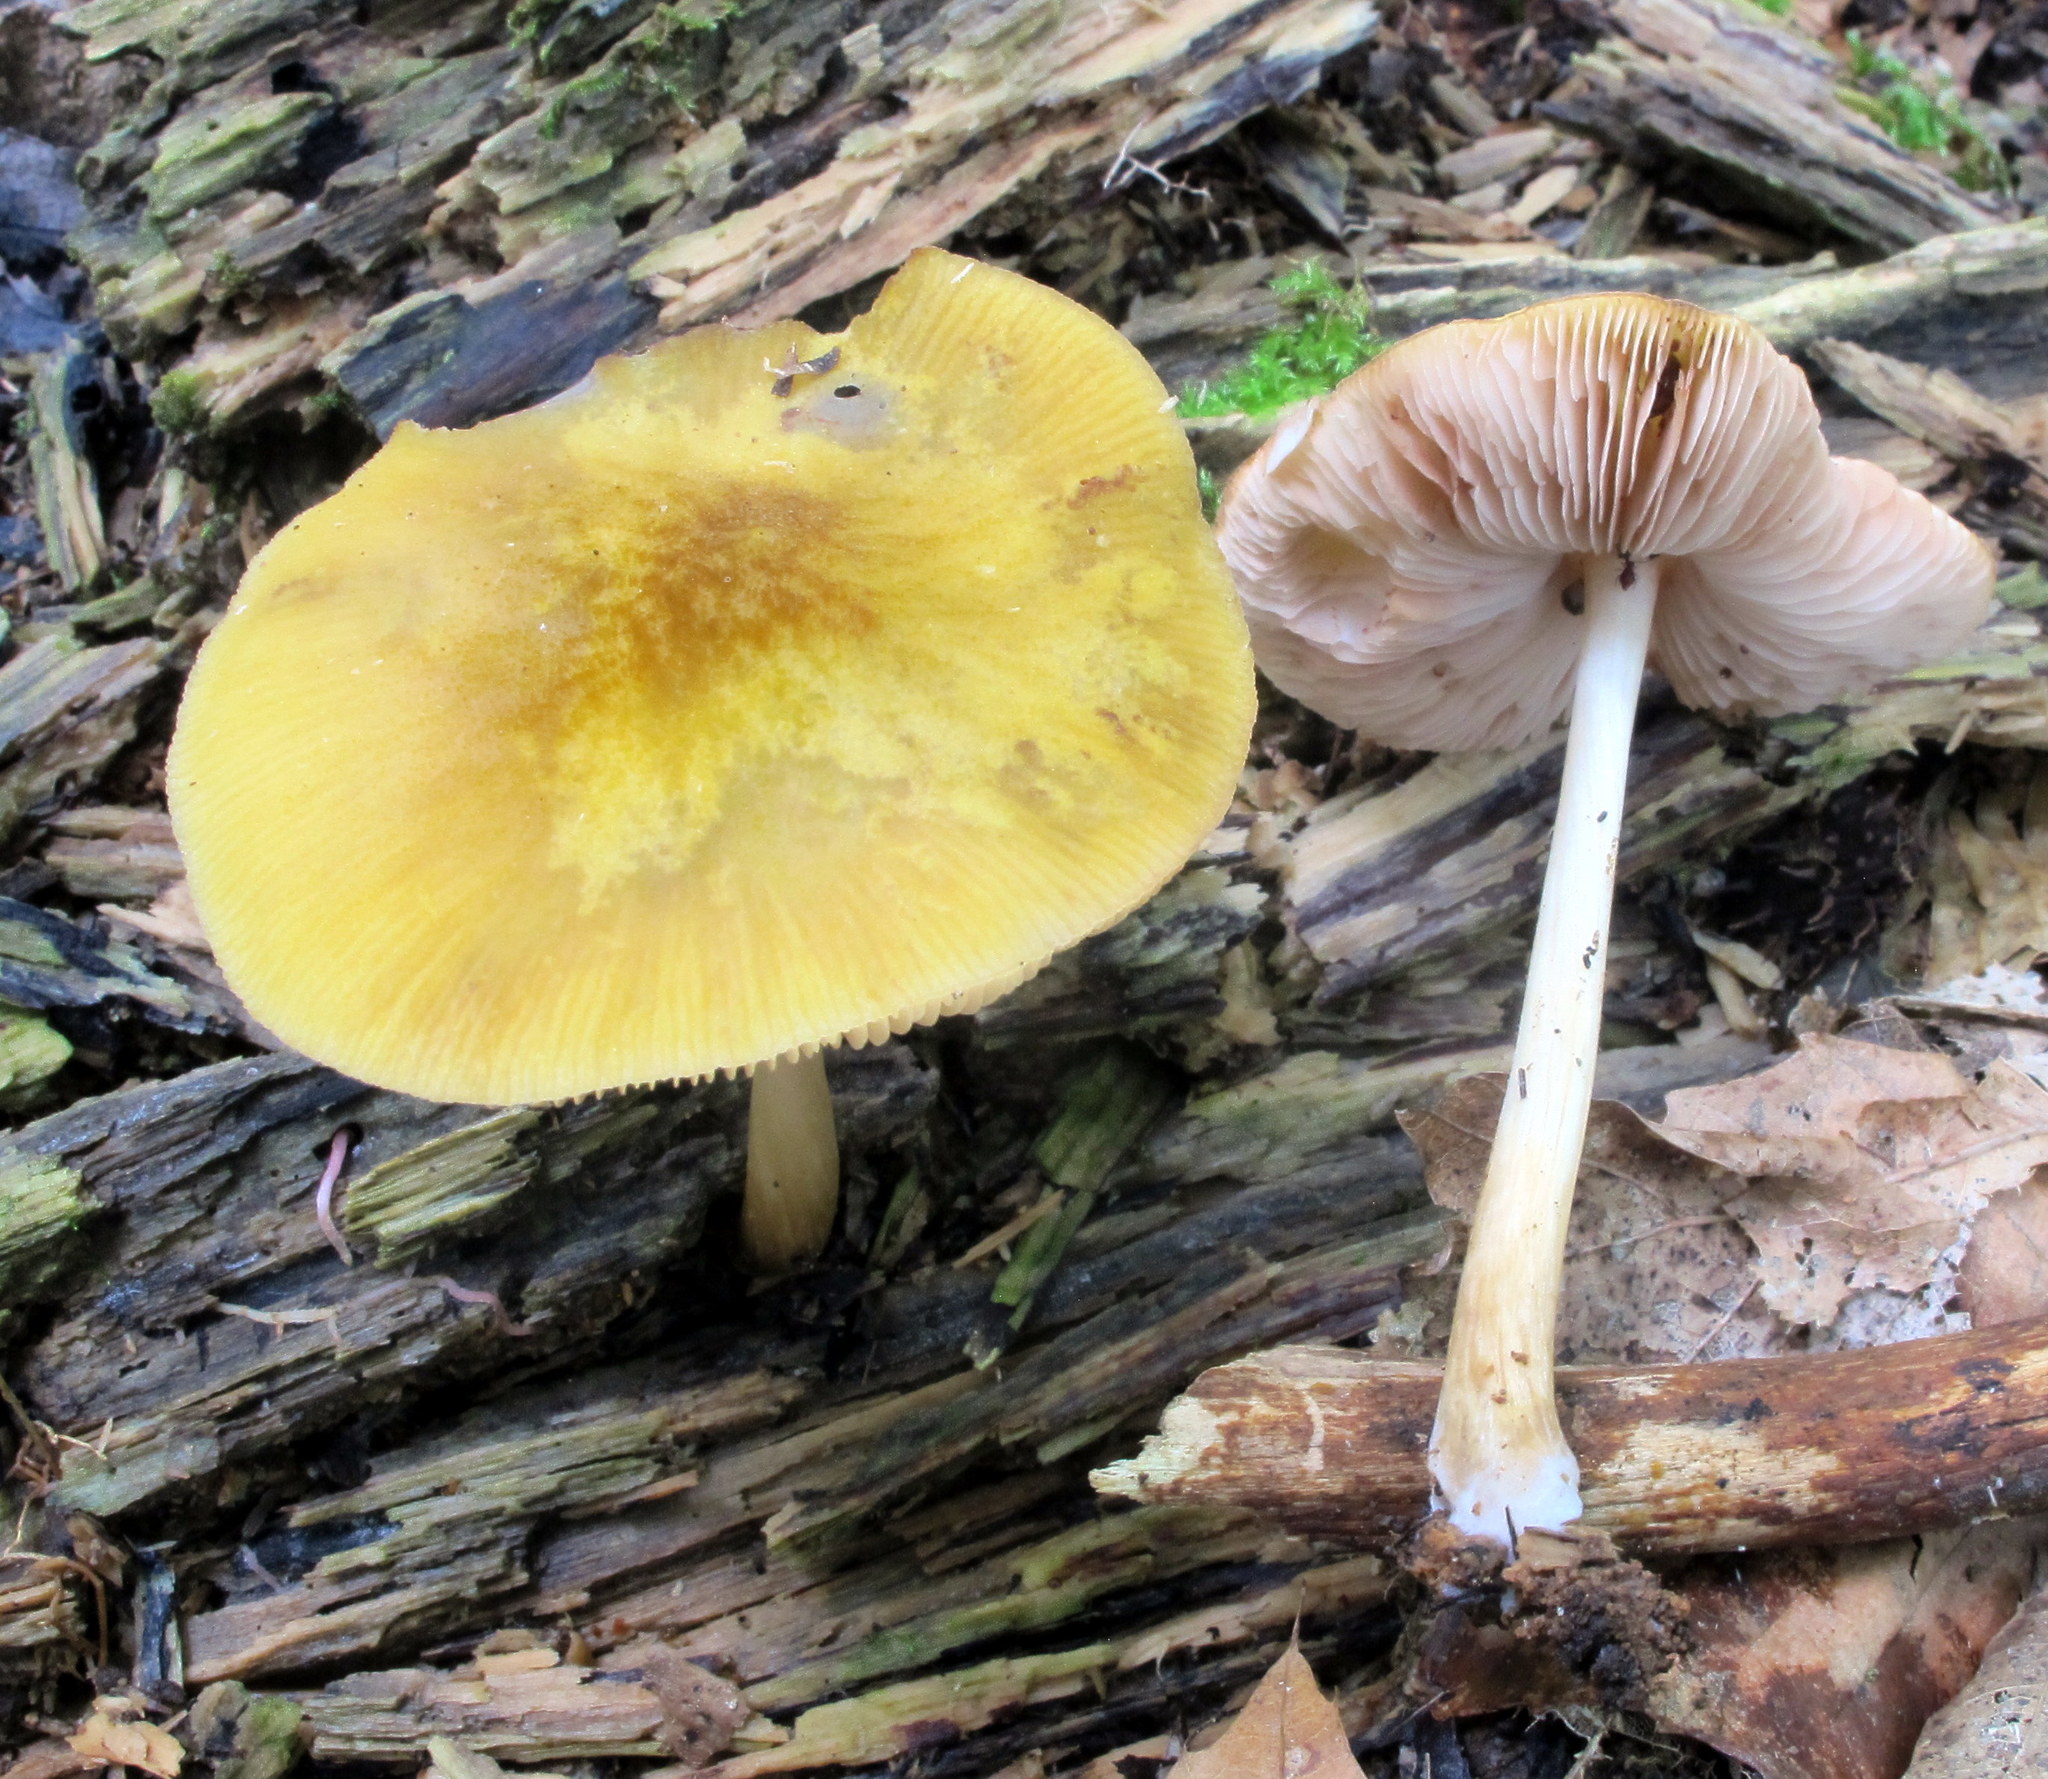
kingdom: Fungi
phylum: Basidiomycota
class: Agaricomycetes
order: Agaricales
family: Pluteaceae
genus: Pluteus
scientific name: Pluteus flavofuligineus
